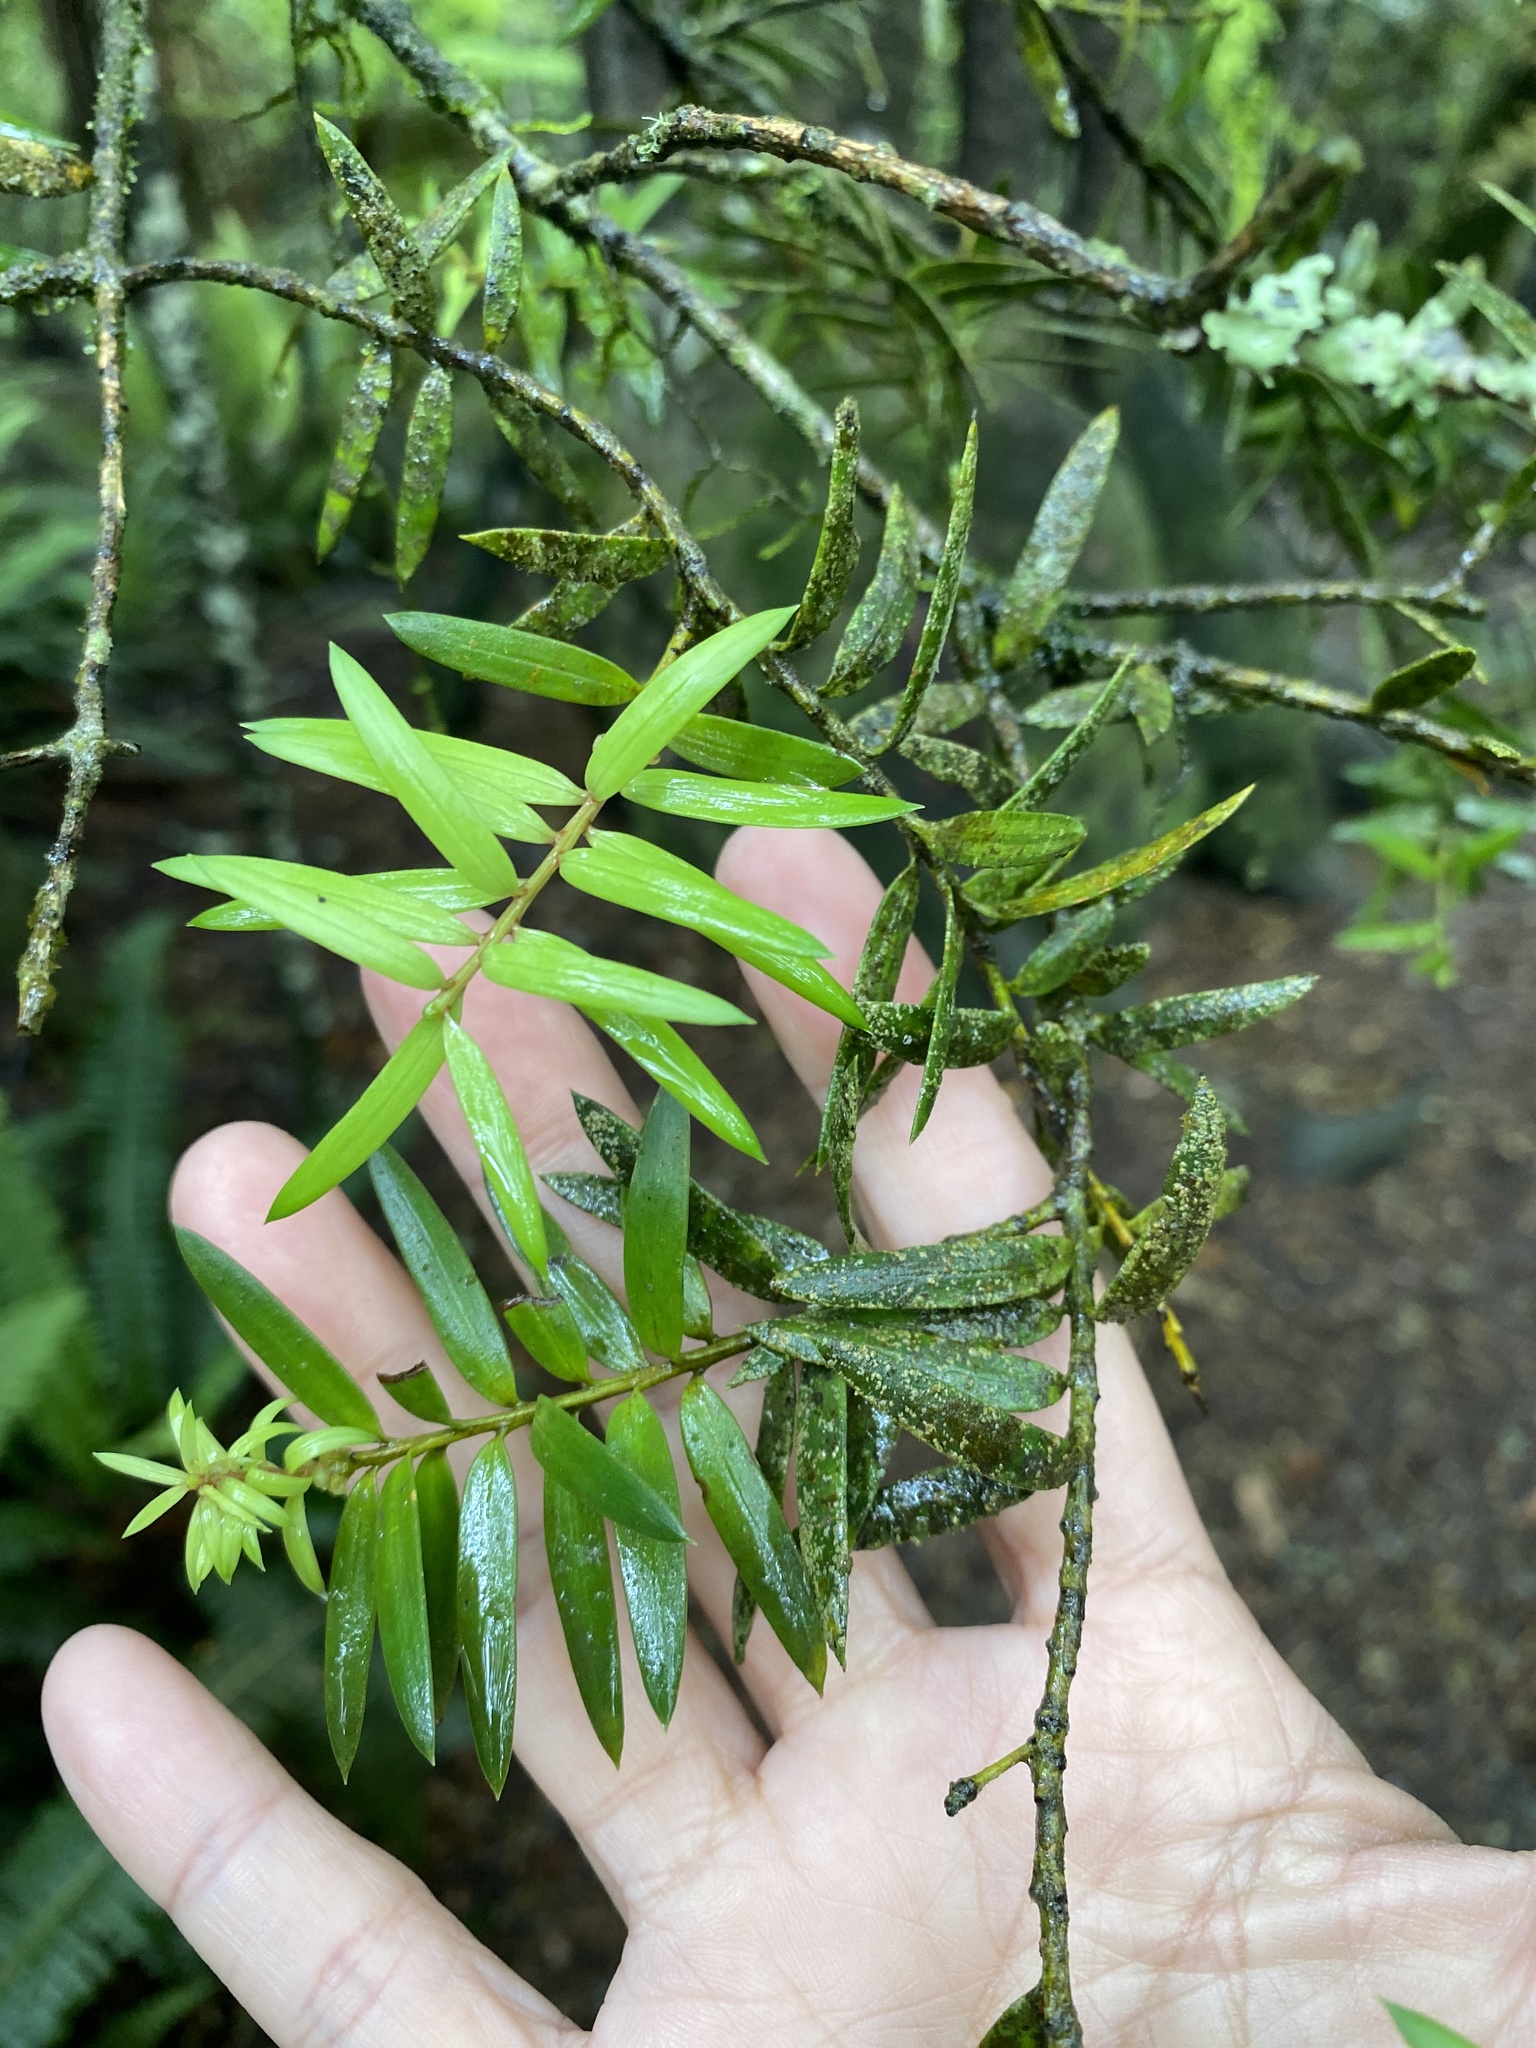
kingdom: Plantae
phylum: Tracheophyta
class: Pinopsida
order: Pinales
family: Podocarpaceae
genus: Podocarpus
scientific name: Podocarpus laetus
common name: Hall's totara
